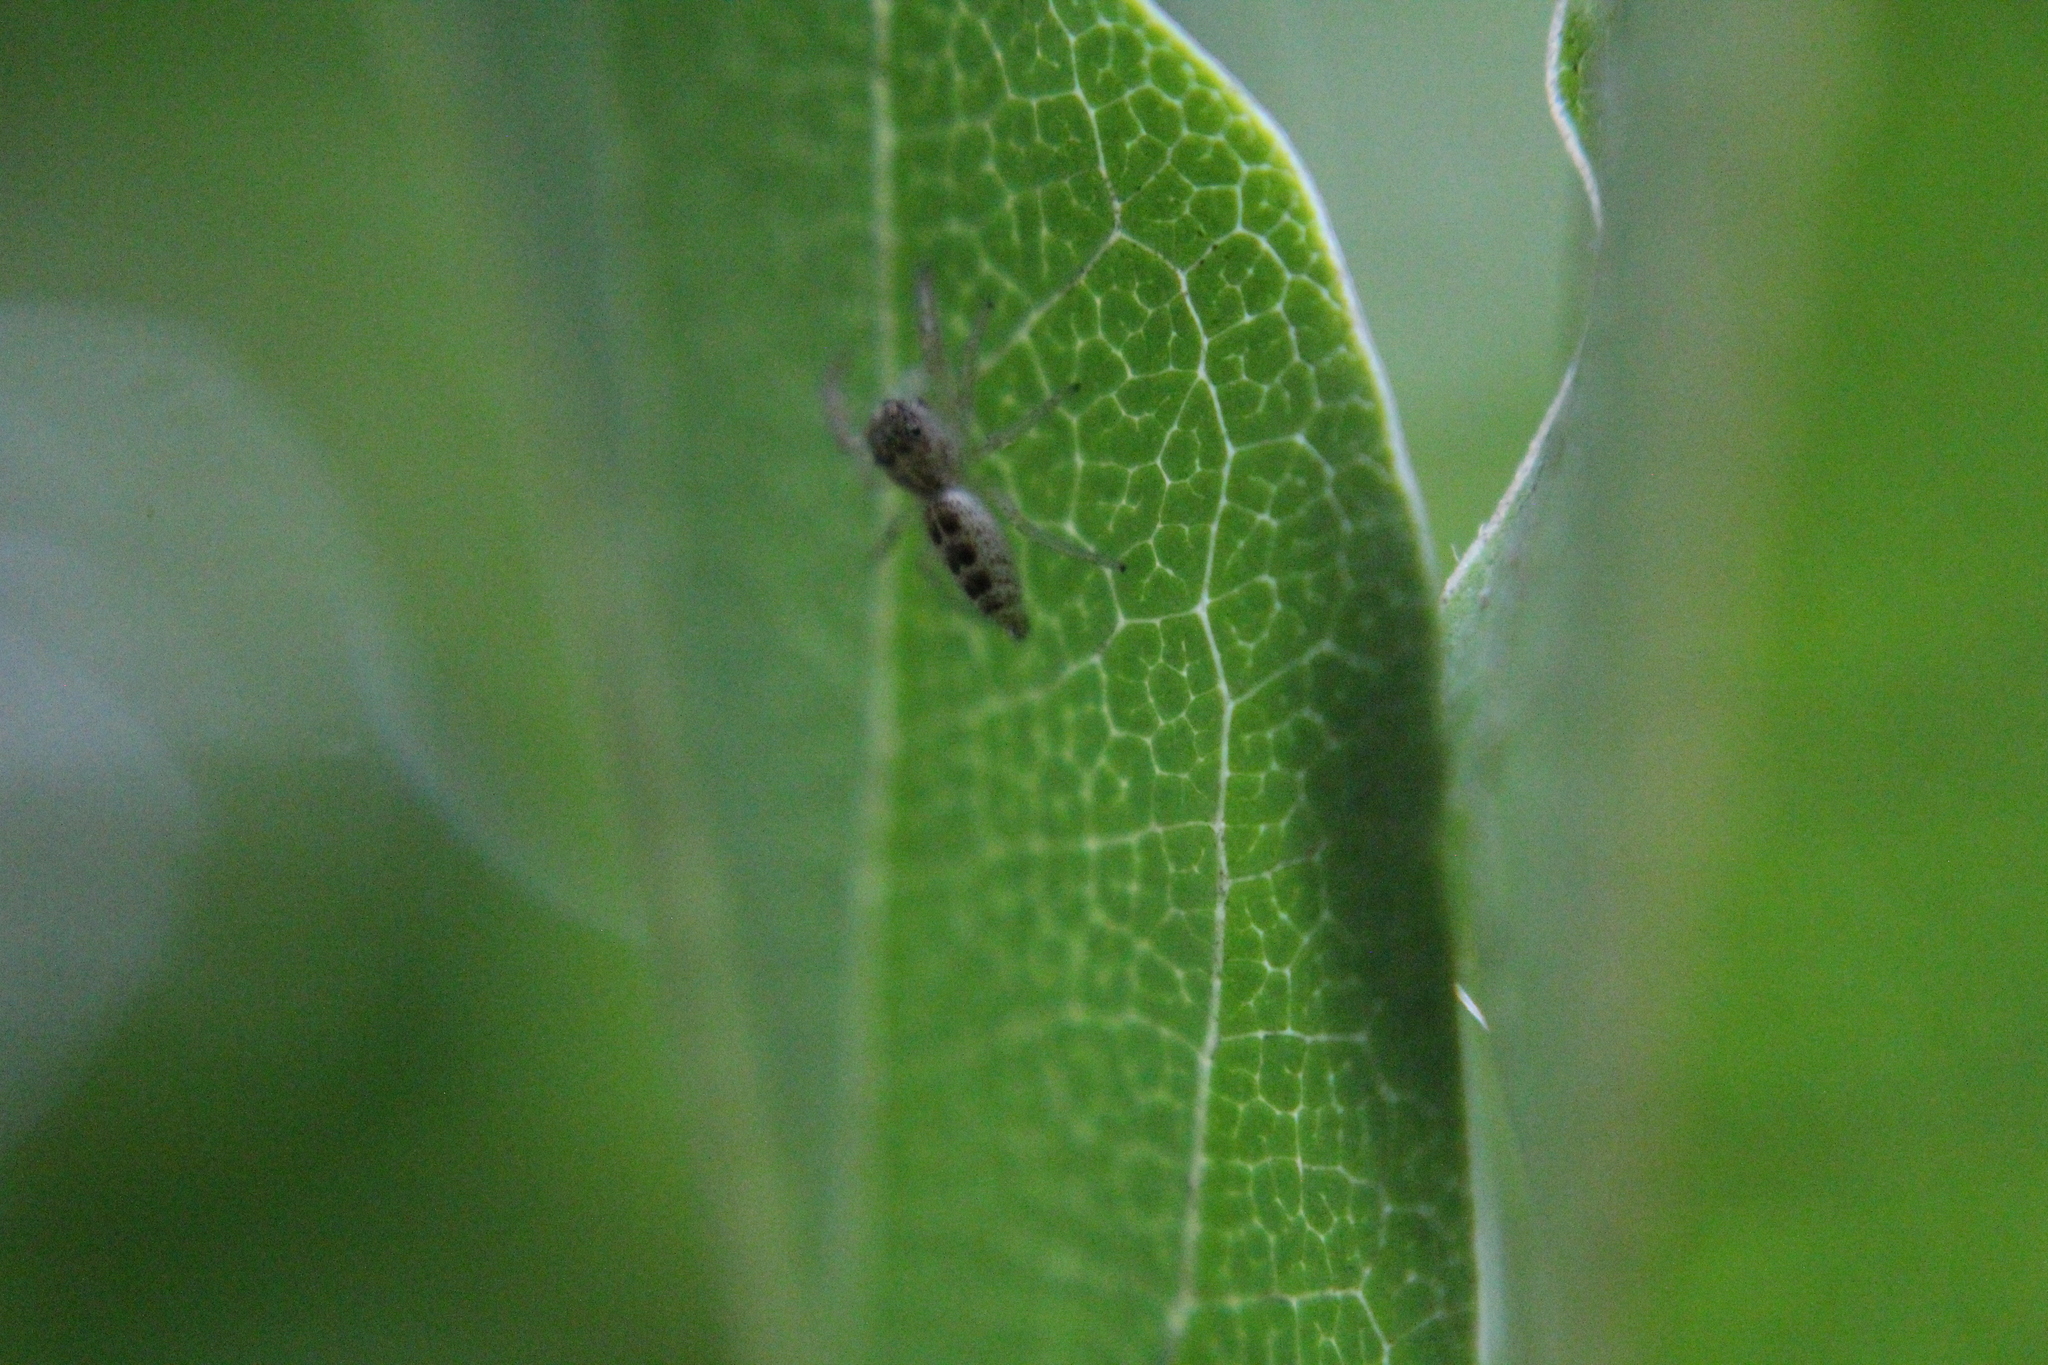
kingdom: Animalia
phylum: Arthropoda
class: Arachnida
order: Araneae
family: Salticidae
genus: Hentzia
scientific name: Hentzia mitrata
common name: White-jawed jumping spider
